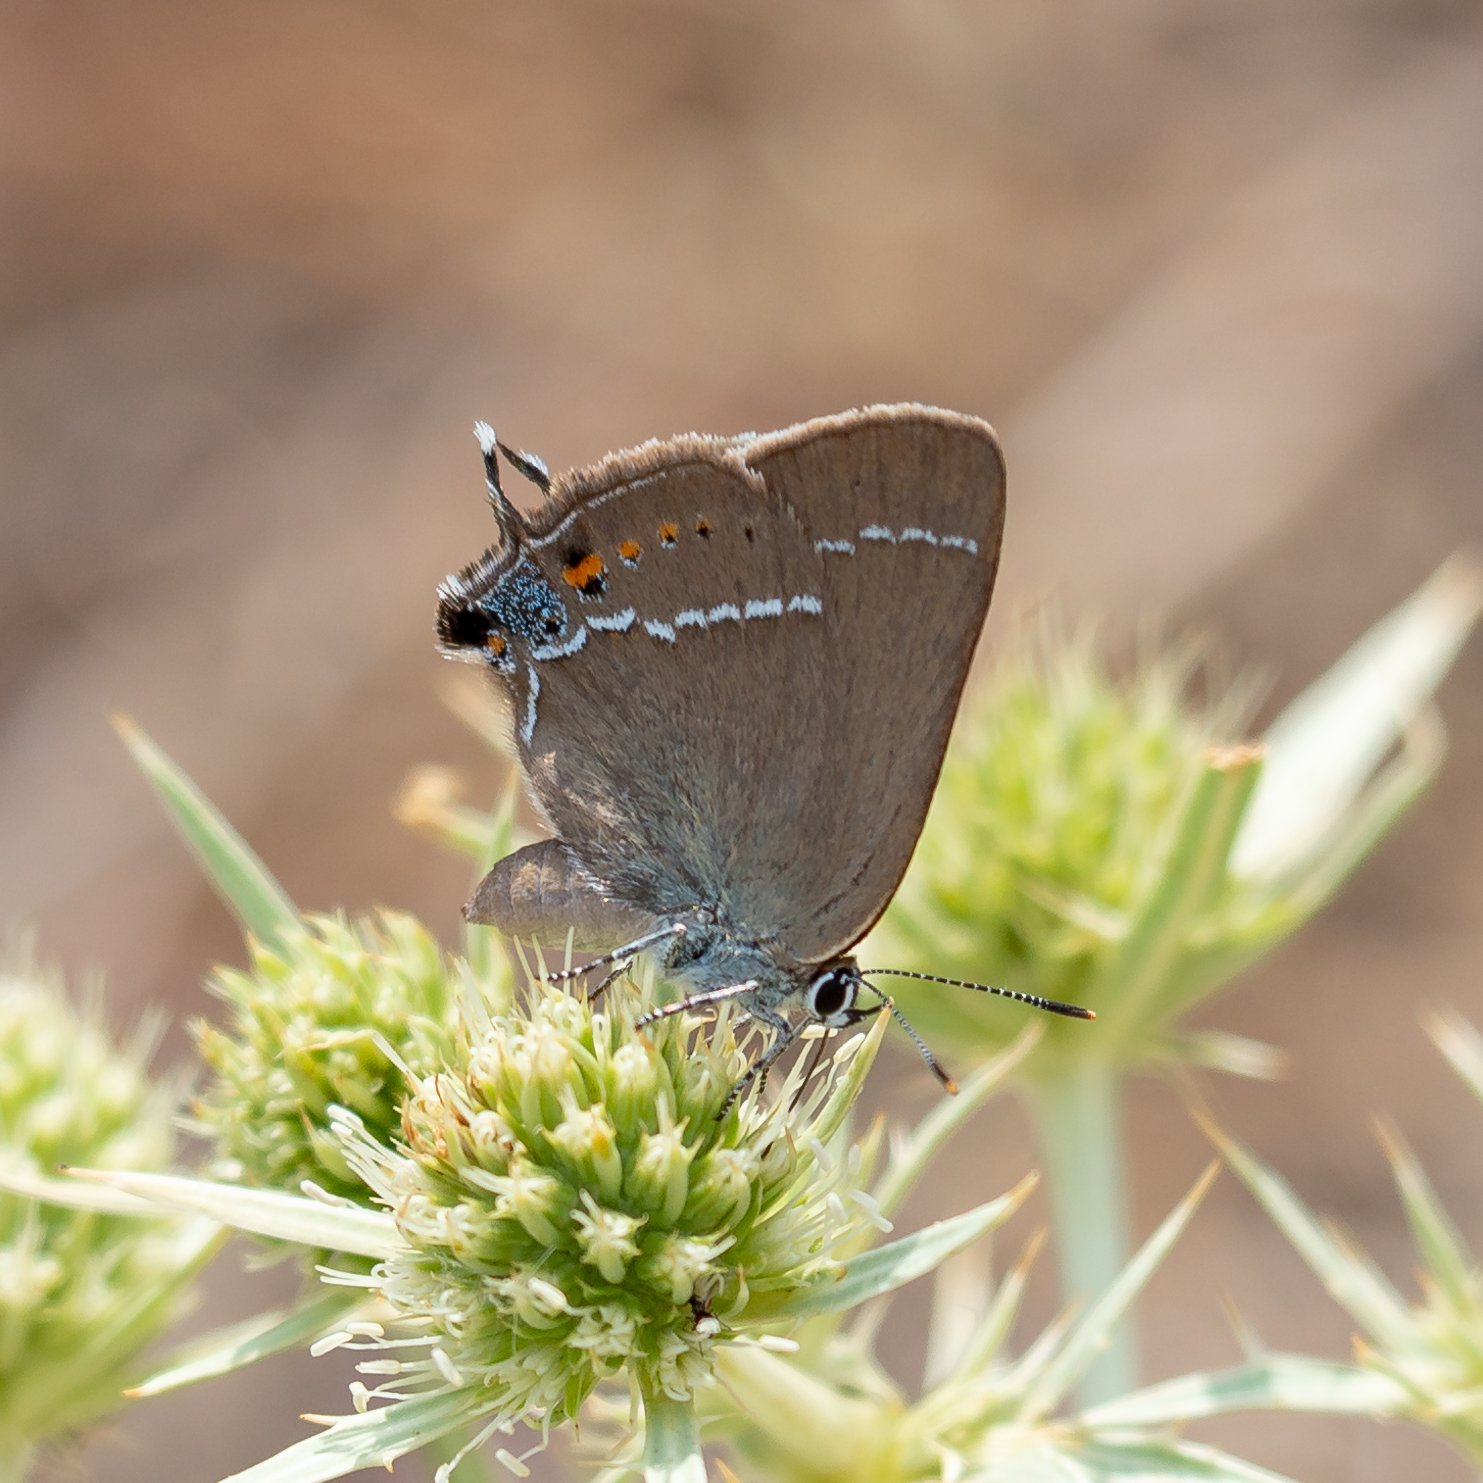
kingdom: Animalia
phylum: Arthropoda
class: Insecta
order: Lepidoptera
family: Lycaenidae
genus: Tuttiola
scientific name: Tuttiola spini
